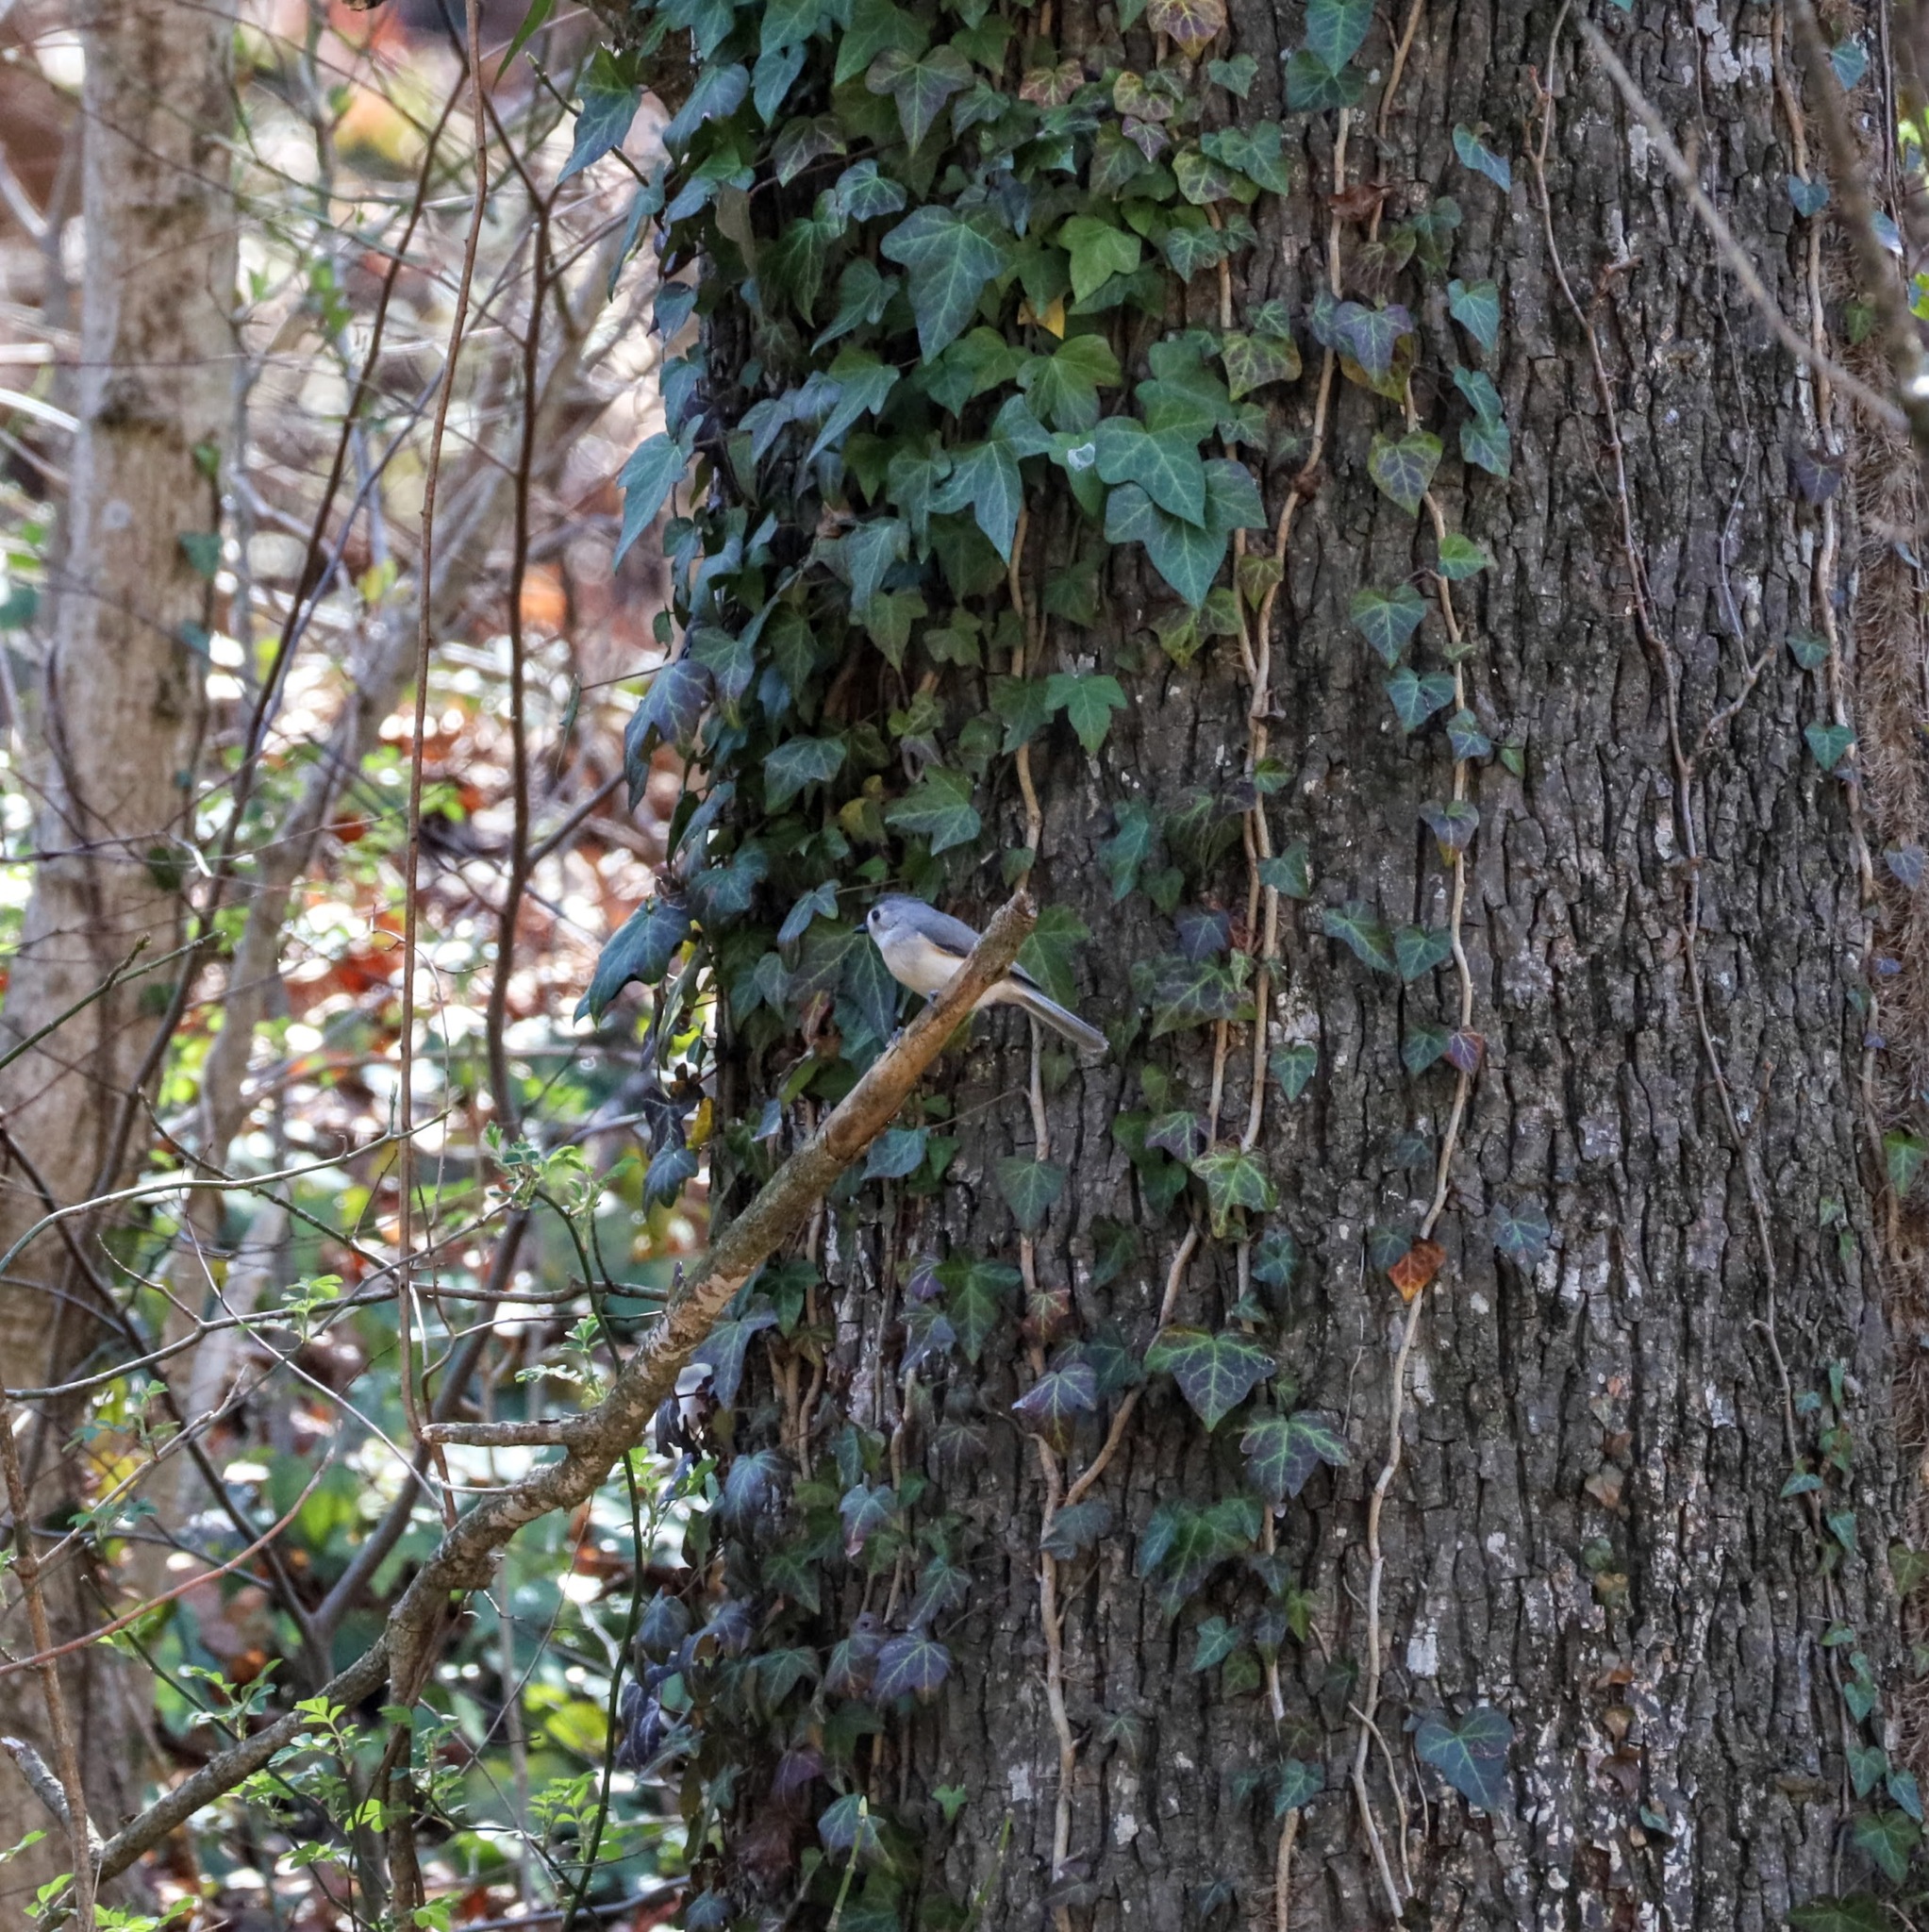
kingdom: Animalia
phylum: Chordata
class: Aves
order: Passeriformes
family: Paridae
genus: Baeolophus
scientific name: Baeolophus bicolor
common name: Tufted titmouse
